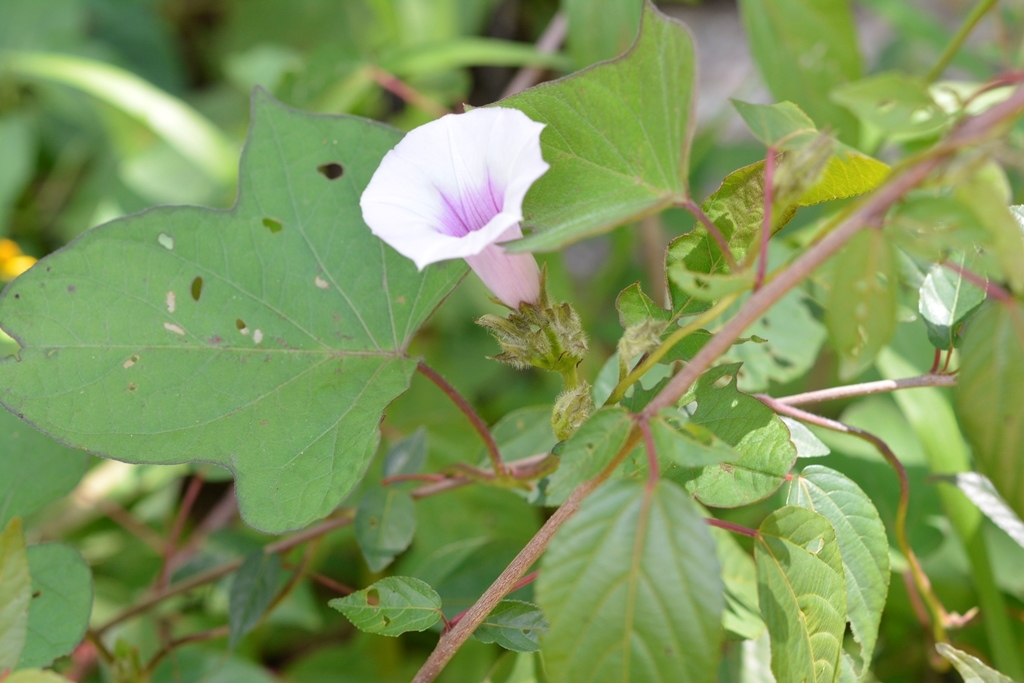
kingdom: Plantae
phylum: Tracheophyta
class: Magnoliopsida
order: Solanales
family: Convolvulaceae
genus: Ipomoea
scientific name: Ipomoea batatas
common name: Sweet-potato
